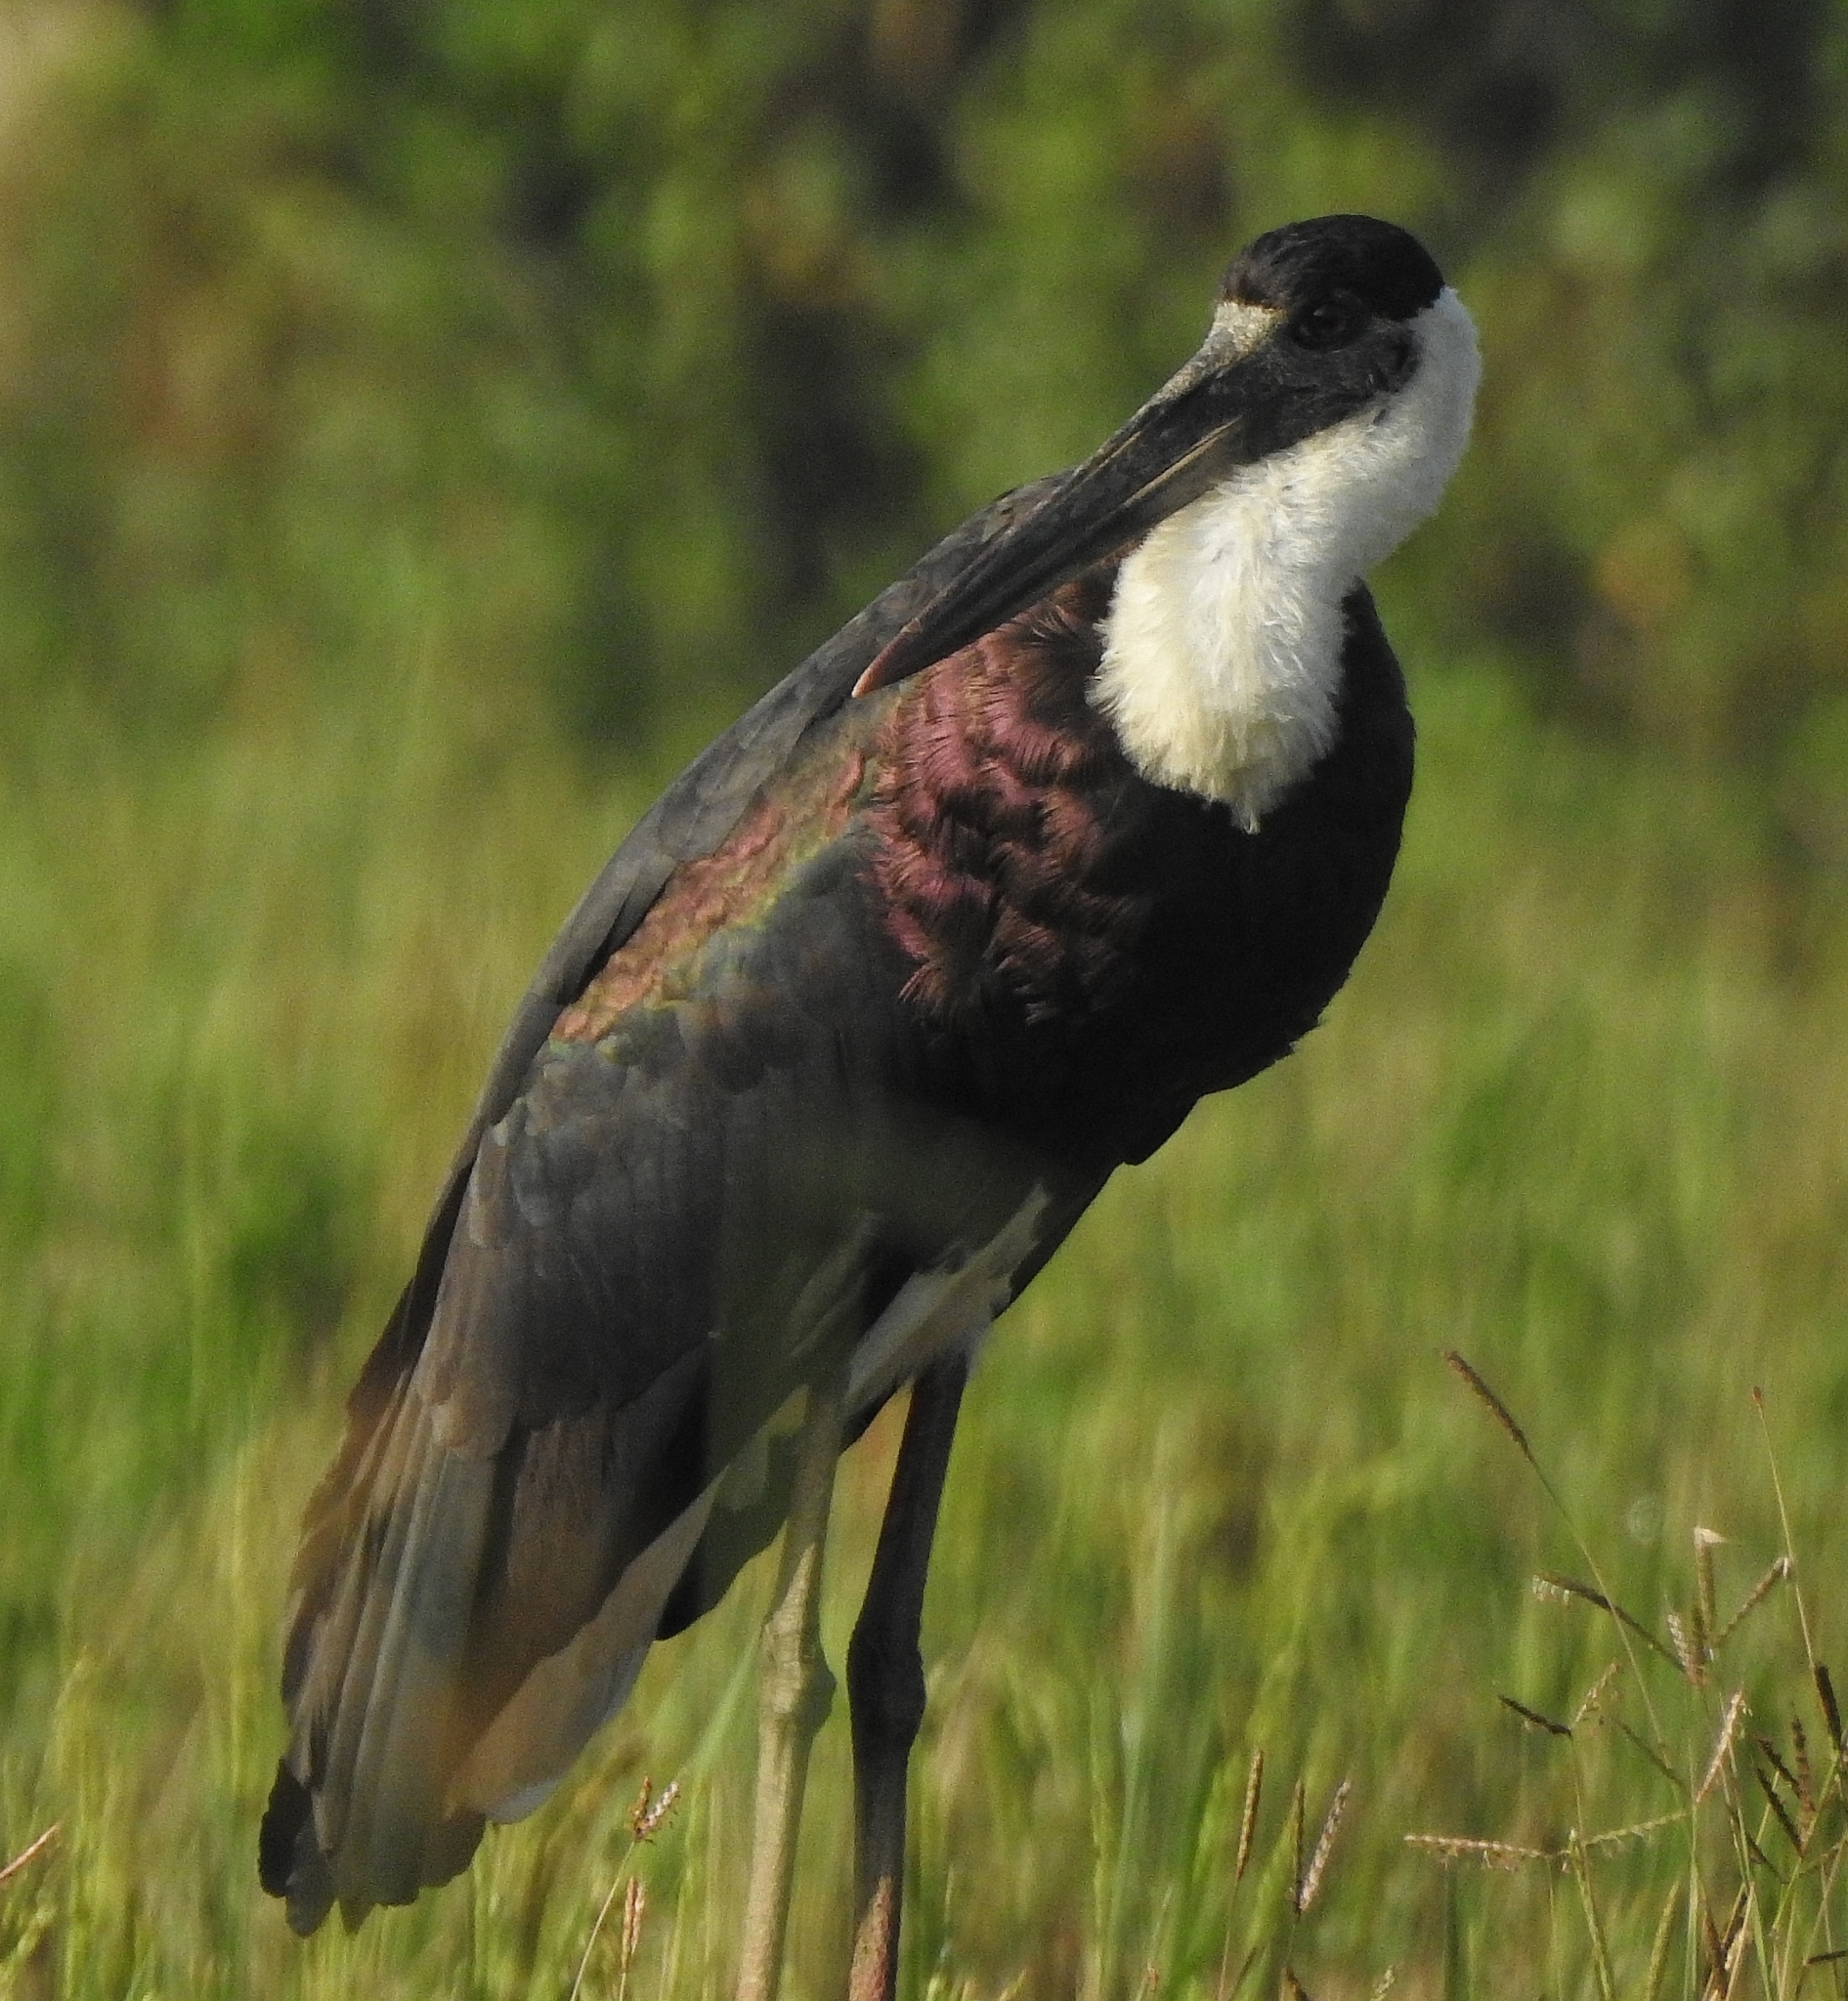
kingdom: Animalia
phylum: Chordata
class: Aves
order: Ciconiiformes
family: Ciconiidae
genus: Ciconia
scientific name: Ciconia episcopus
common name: Woolly-necked stork
